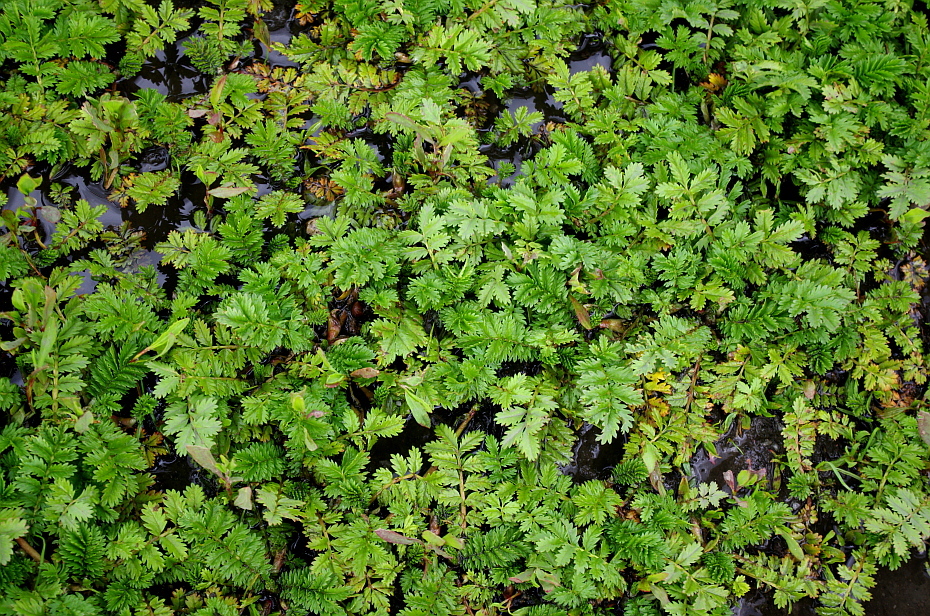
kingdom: Plantae
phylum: Tracheophyta
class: Magnoliopsida
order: Rosales
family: Rosaceae
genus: Argentina
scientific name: Argentina anserina
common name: Common silverweed
